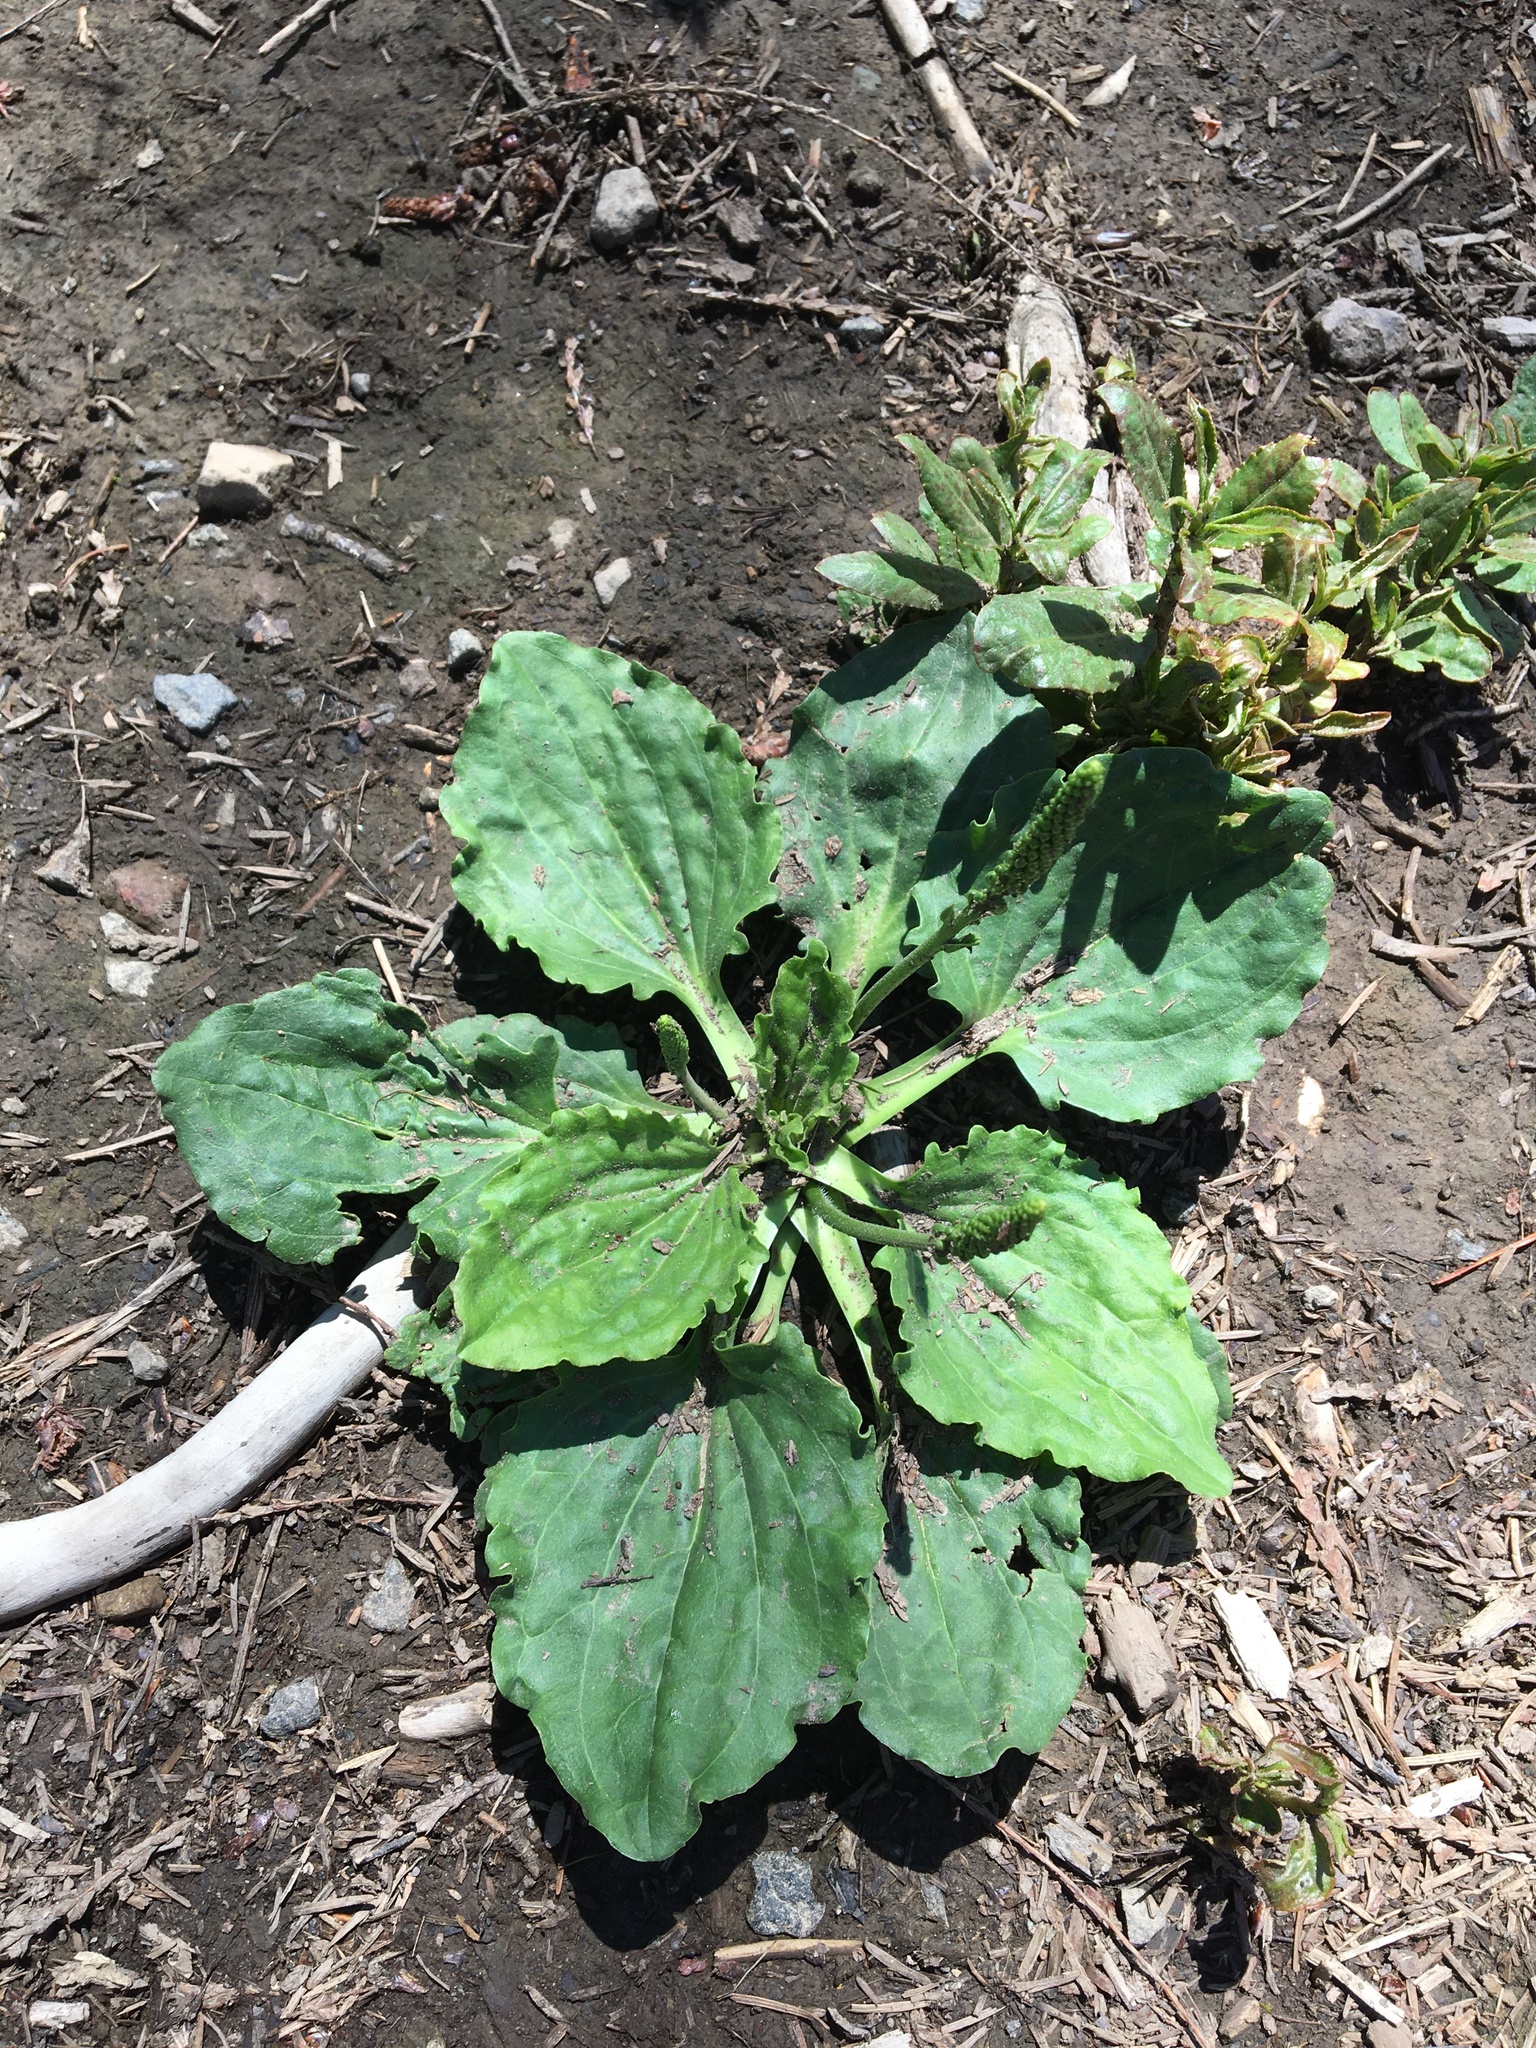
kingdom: Plantae
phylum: Tracheophyta
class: Magnoliopsida
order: Lamiales
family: Plantaginaceae
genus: Plantago
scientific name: Plantago major
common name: Common plantain
